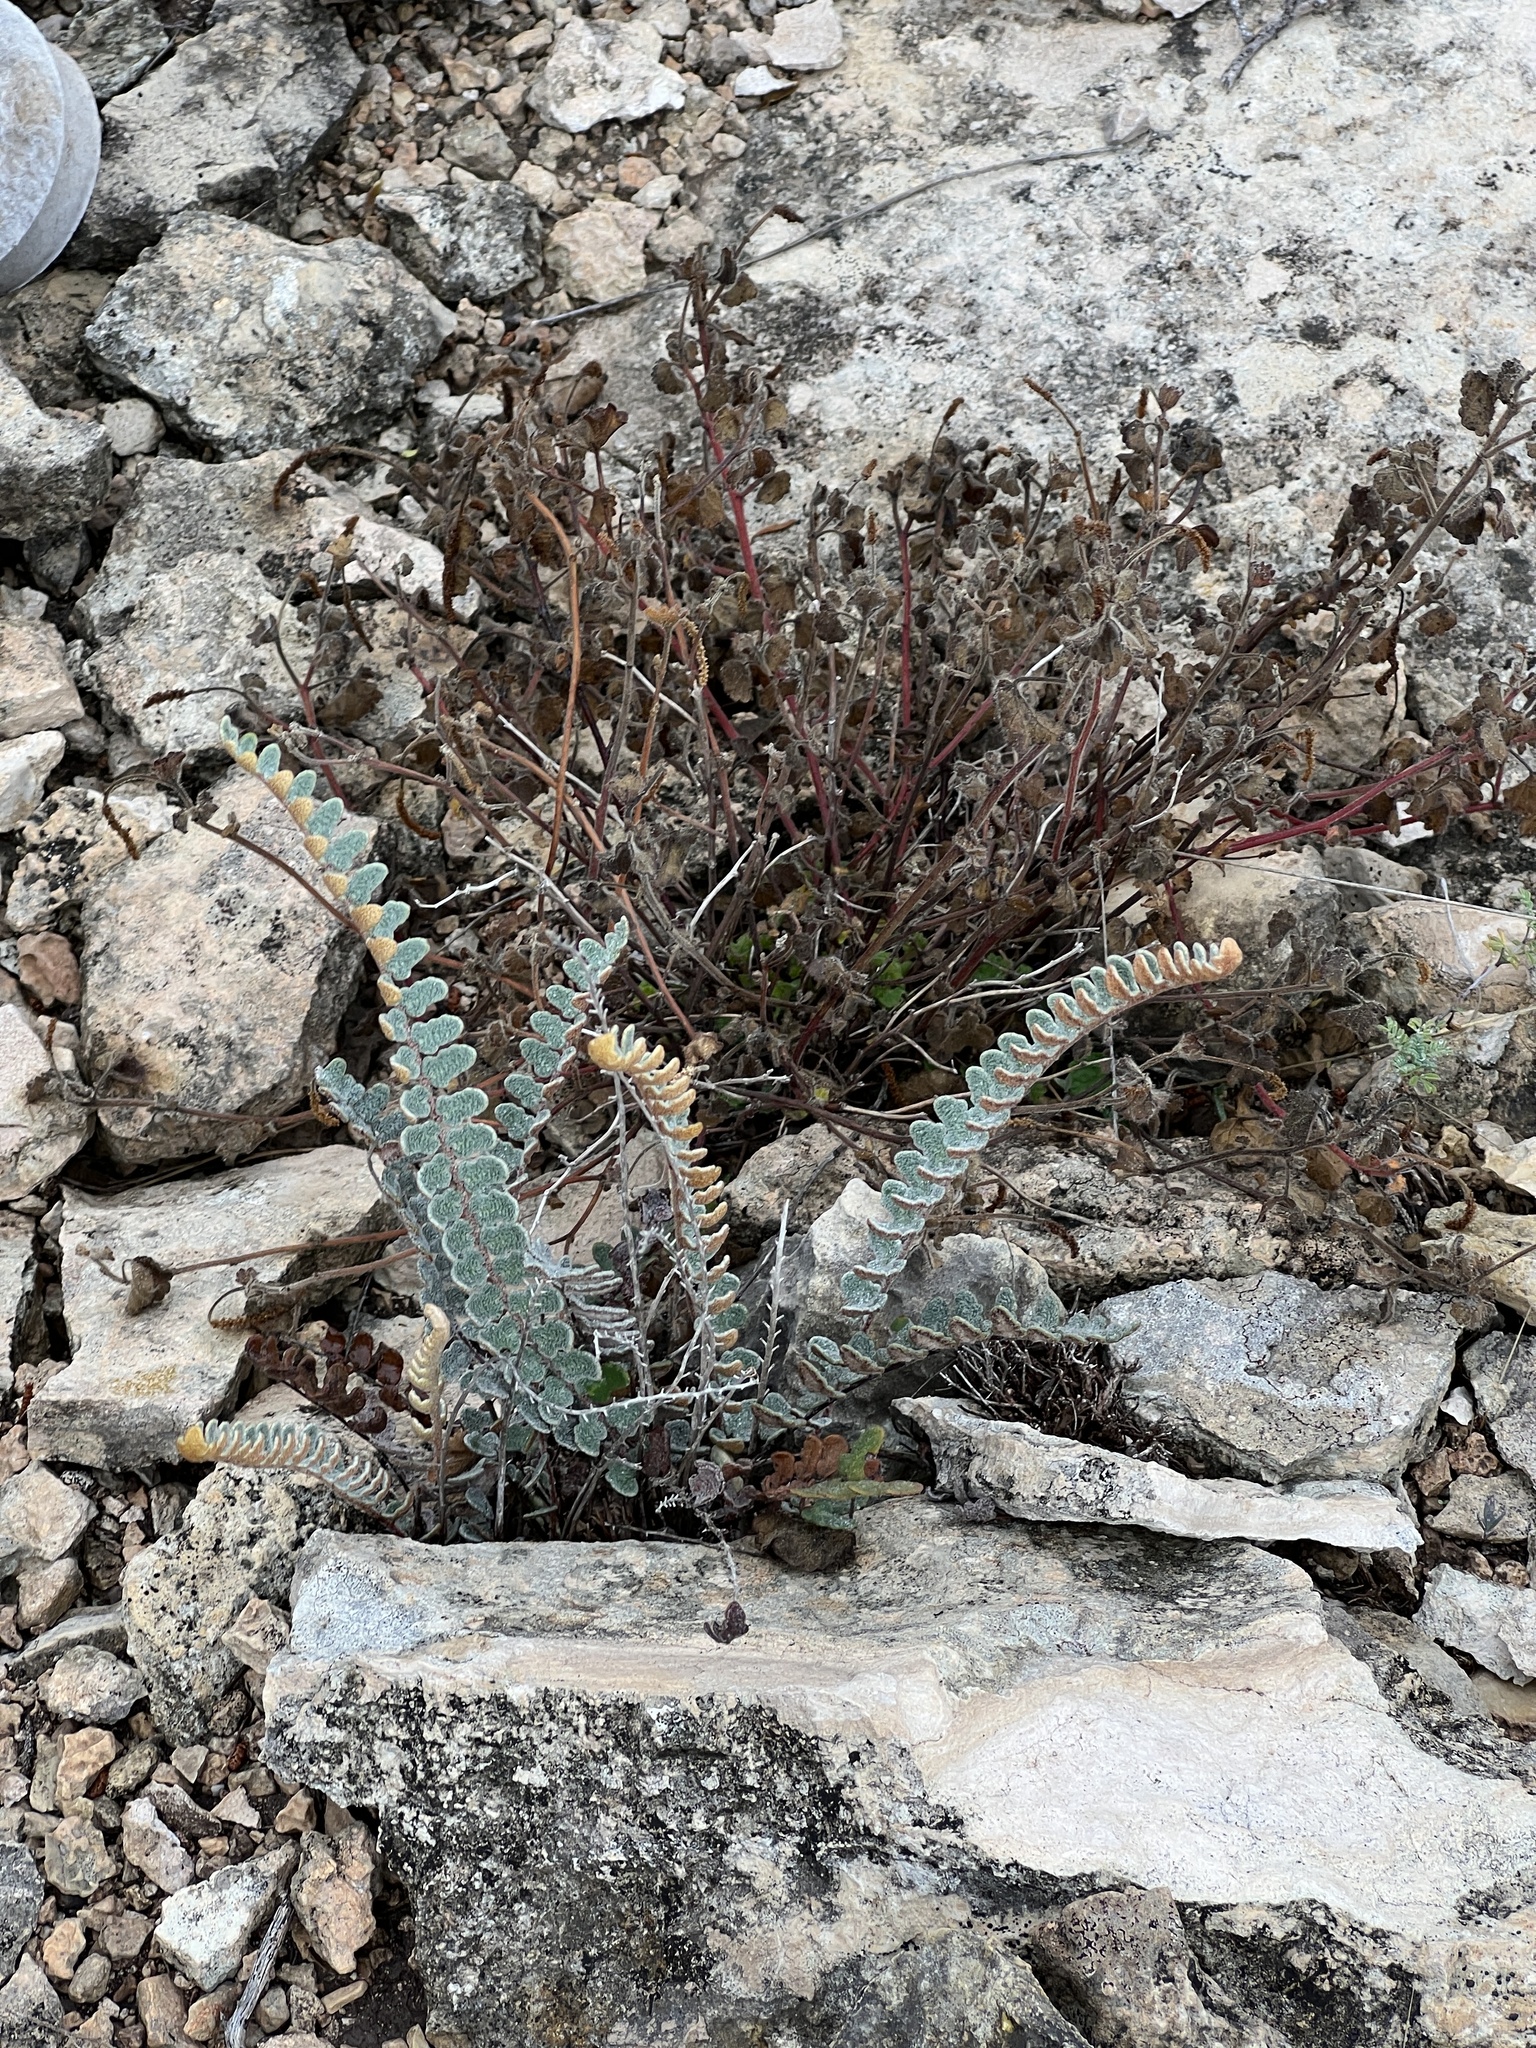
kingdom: Plantae
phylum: Tracheophyta
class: Polypodiopsida
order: Polypodiales
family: Pteridaceae
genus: Astrolepis
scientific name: Astrolepis integerrima
